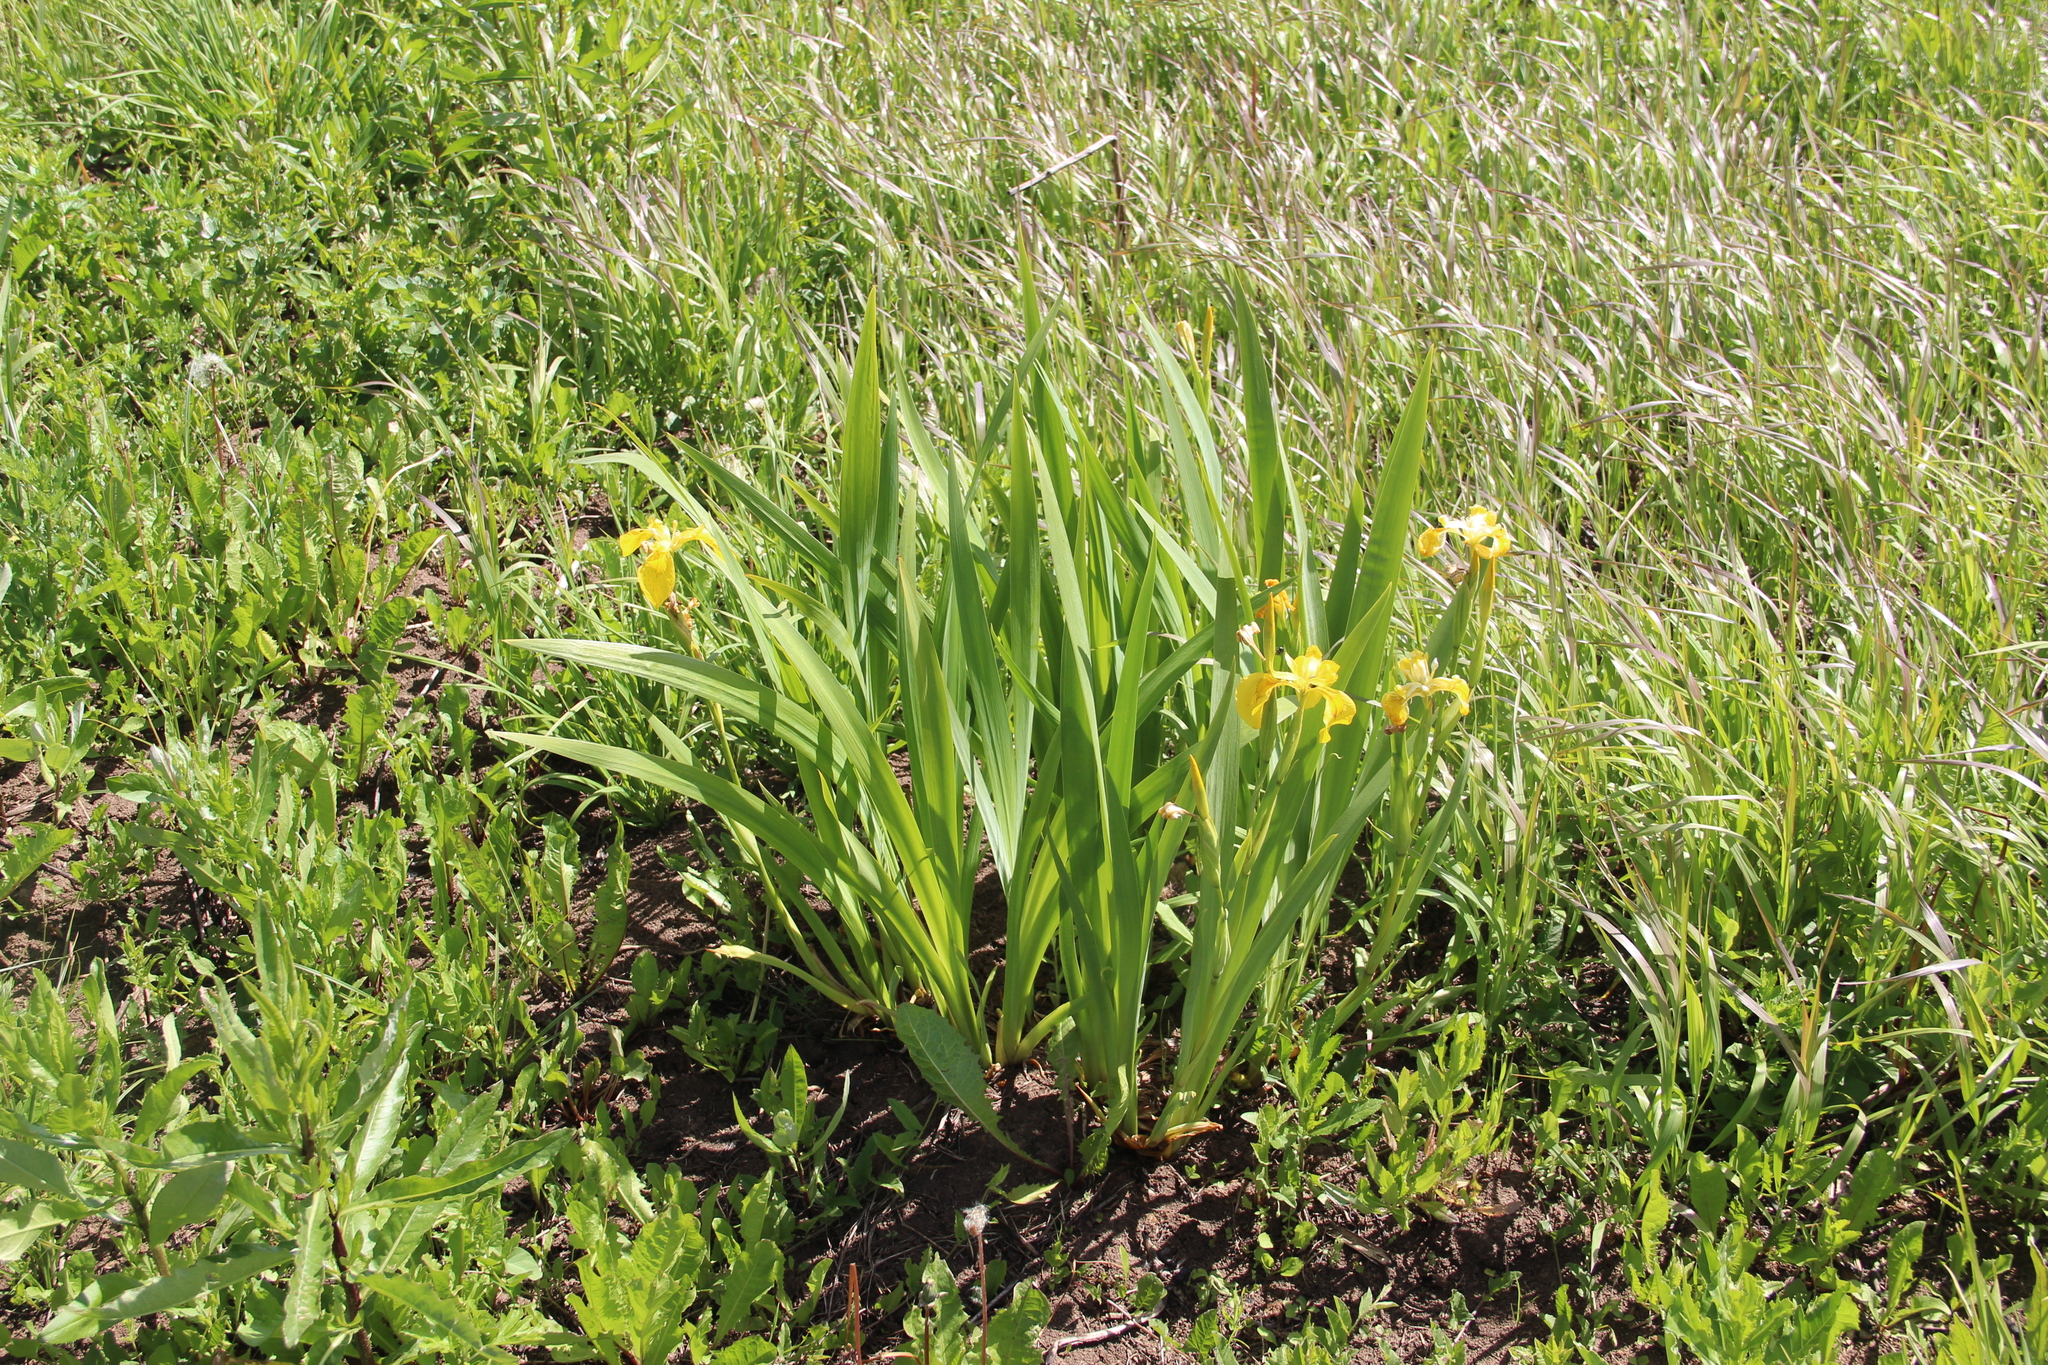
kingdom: Plantae
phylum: Tracheophyta
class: Liliopsida
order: Asparagales
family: Iridaceae
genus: Iris
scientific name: Iris pseudacorus
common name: Yellow flag
